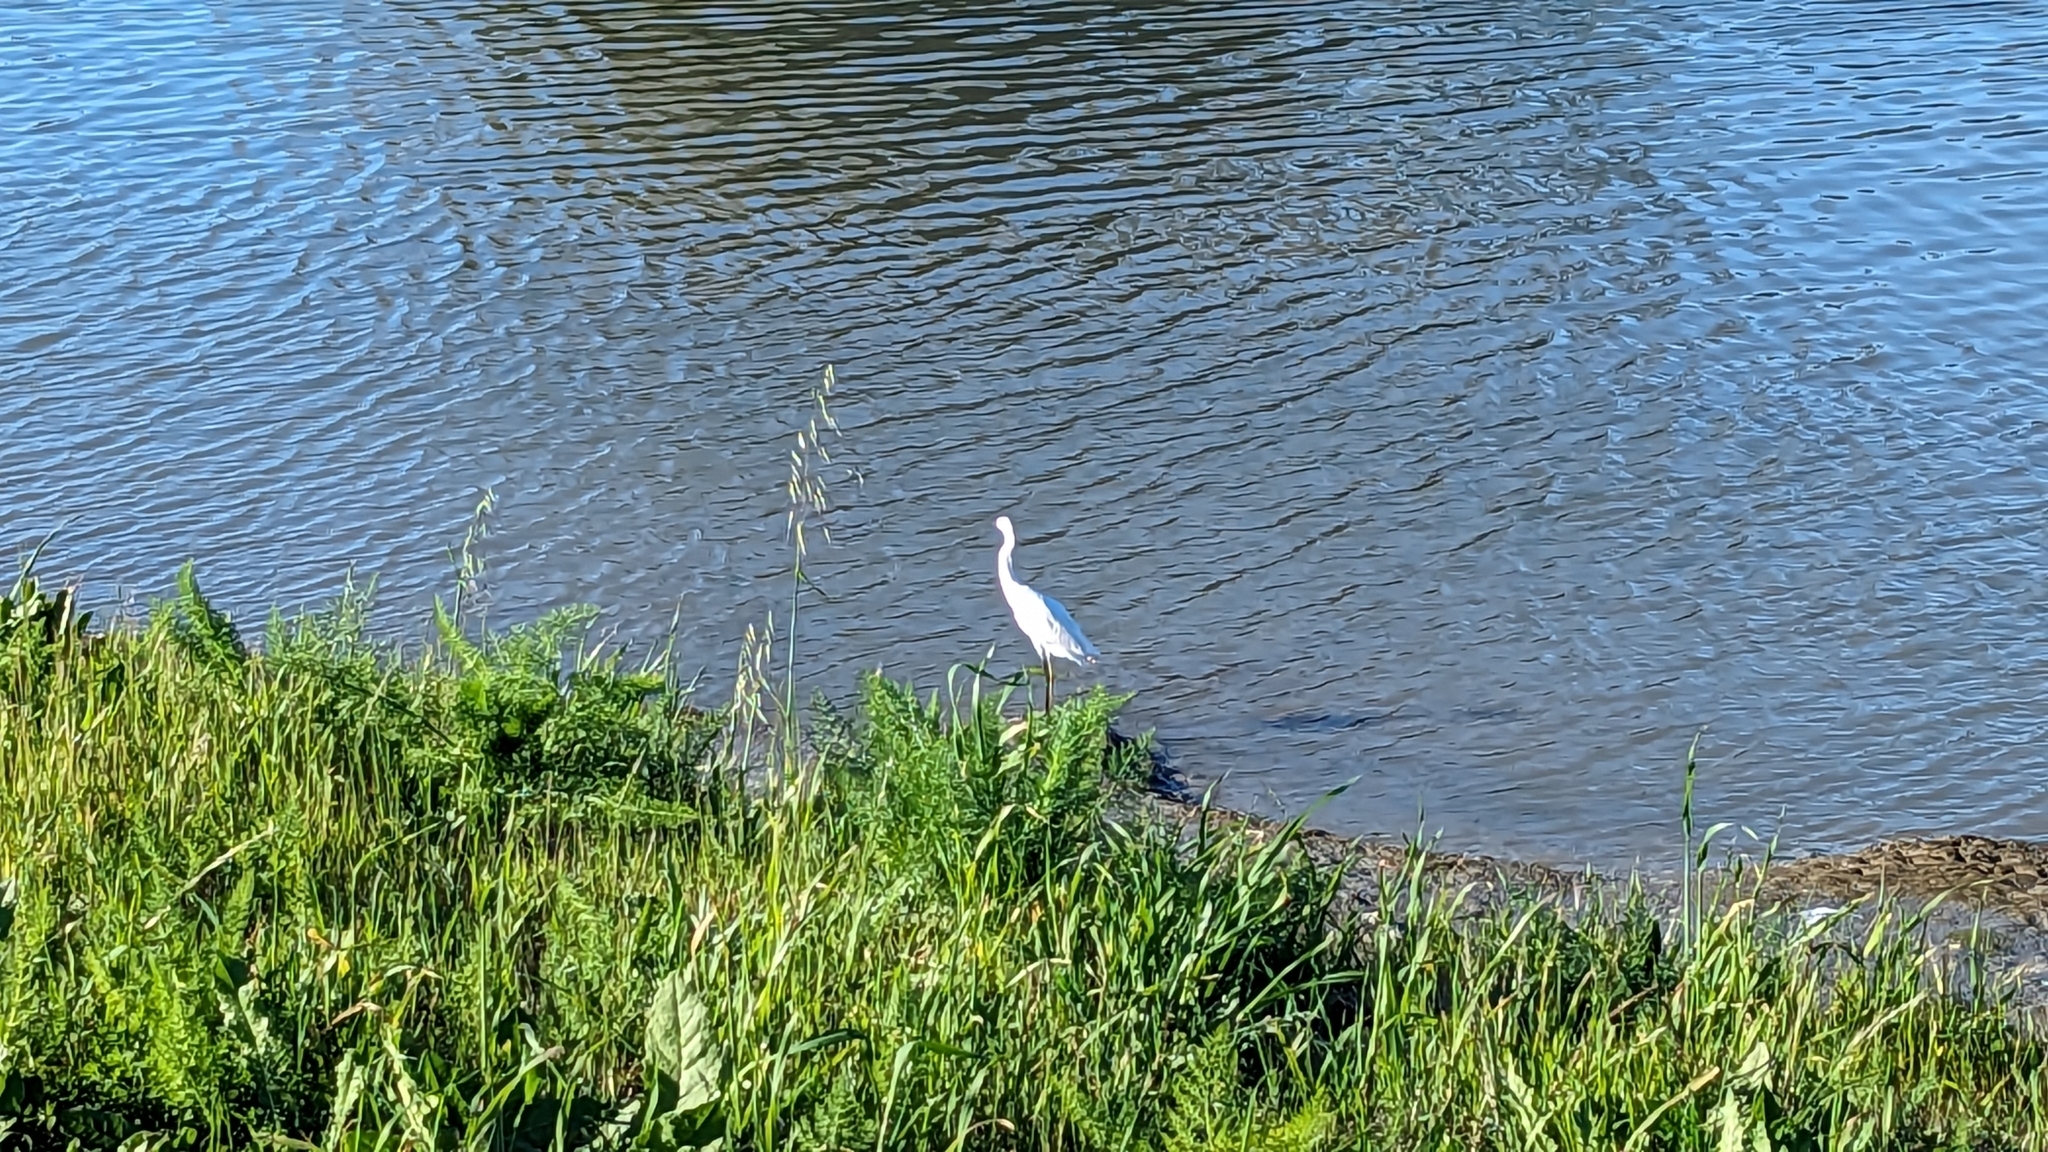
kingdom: Animalia
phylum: Chordata
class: Aves
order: Pelecaniformes
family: Ardeidae
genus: Egretta
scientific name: Egretta thula
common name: Snowy egret
